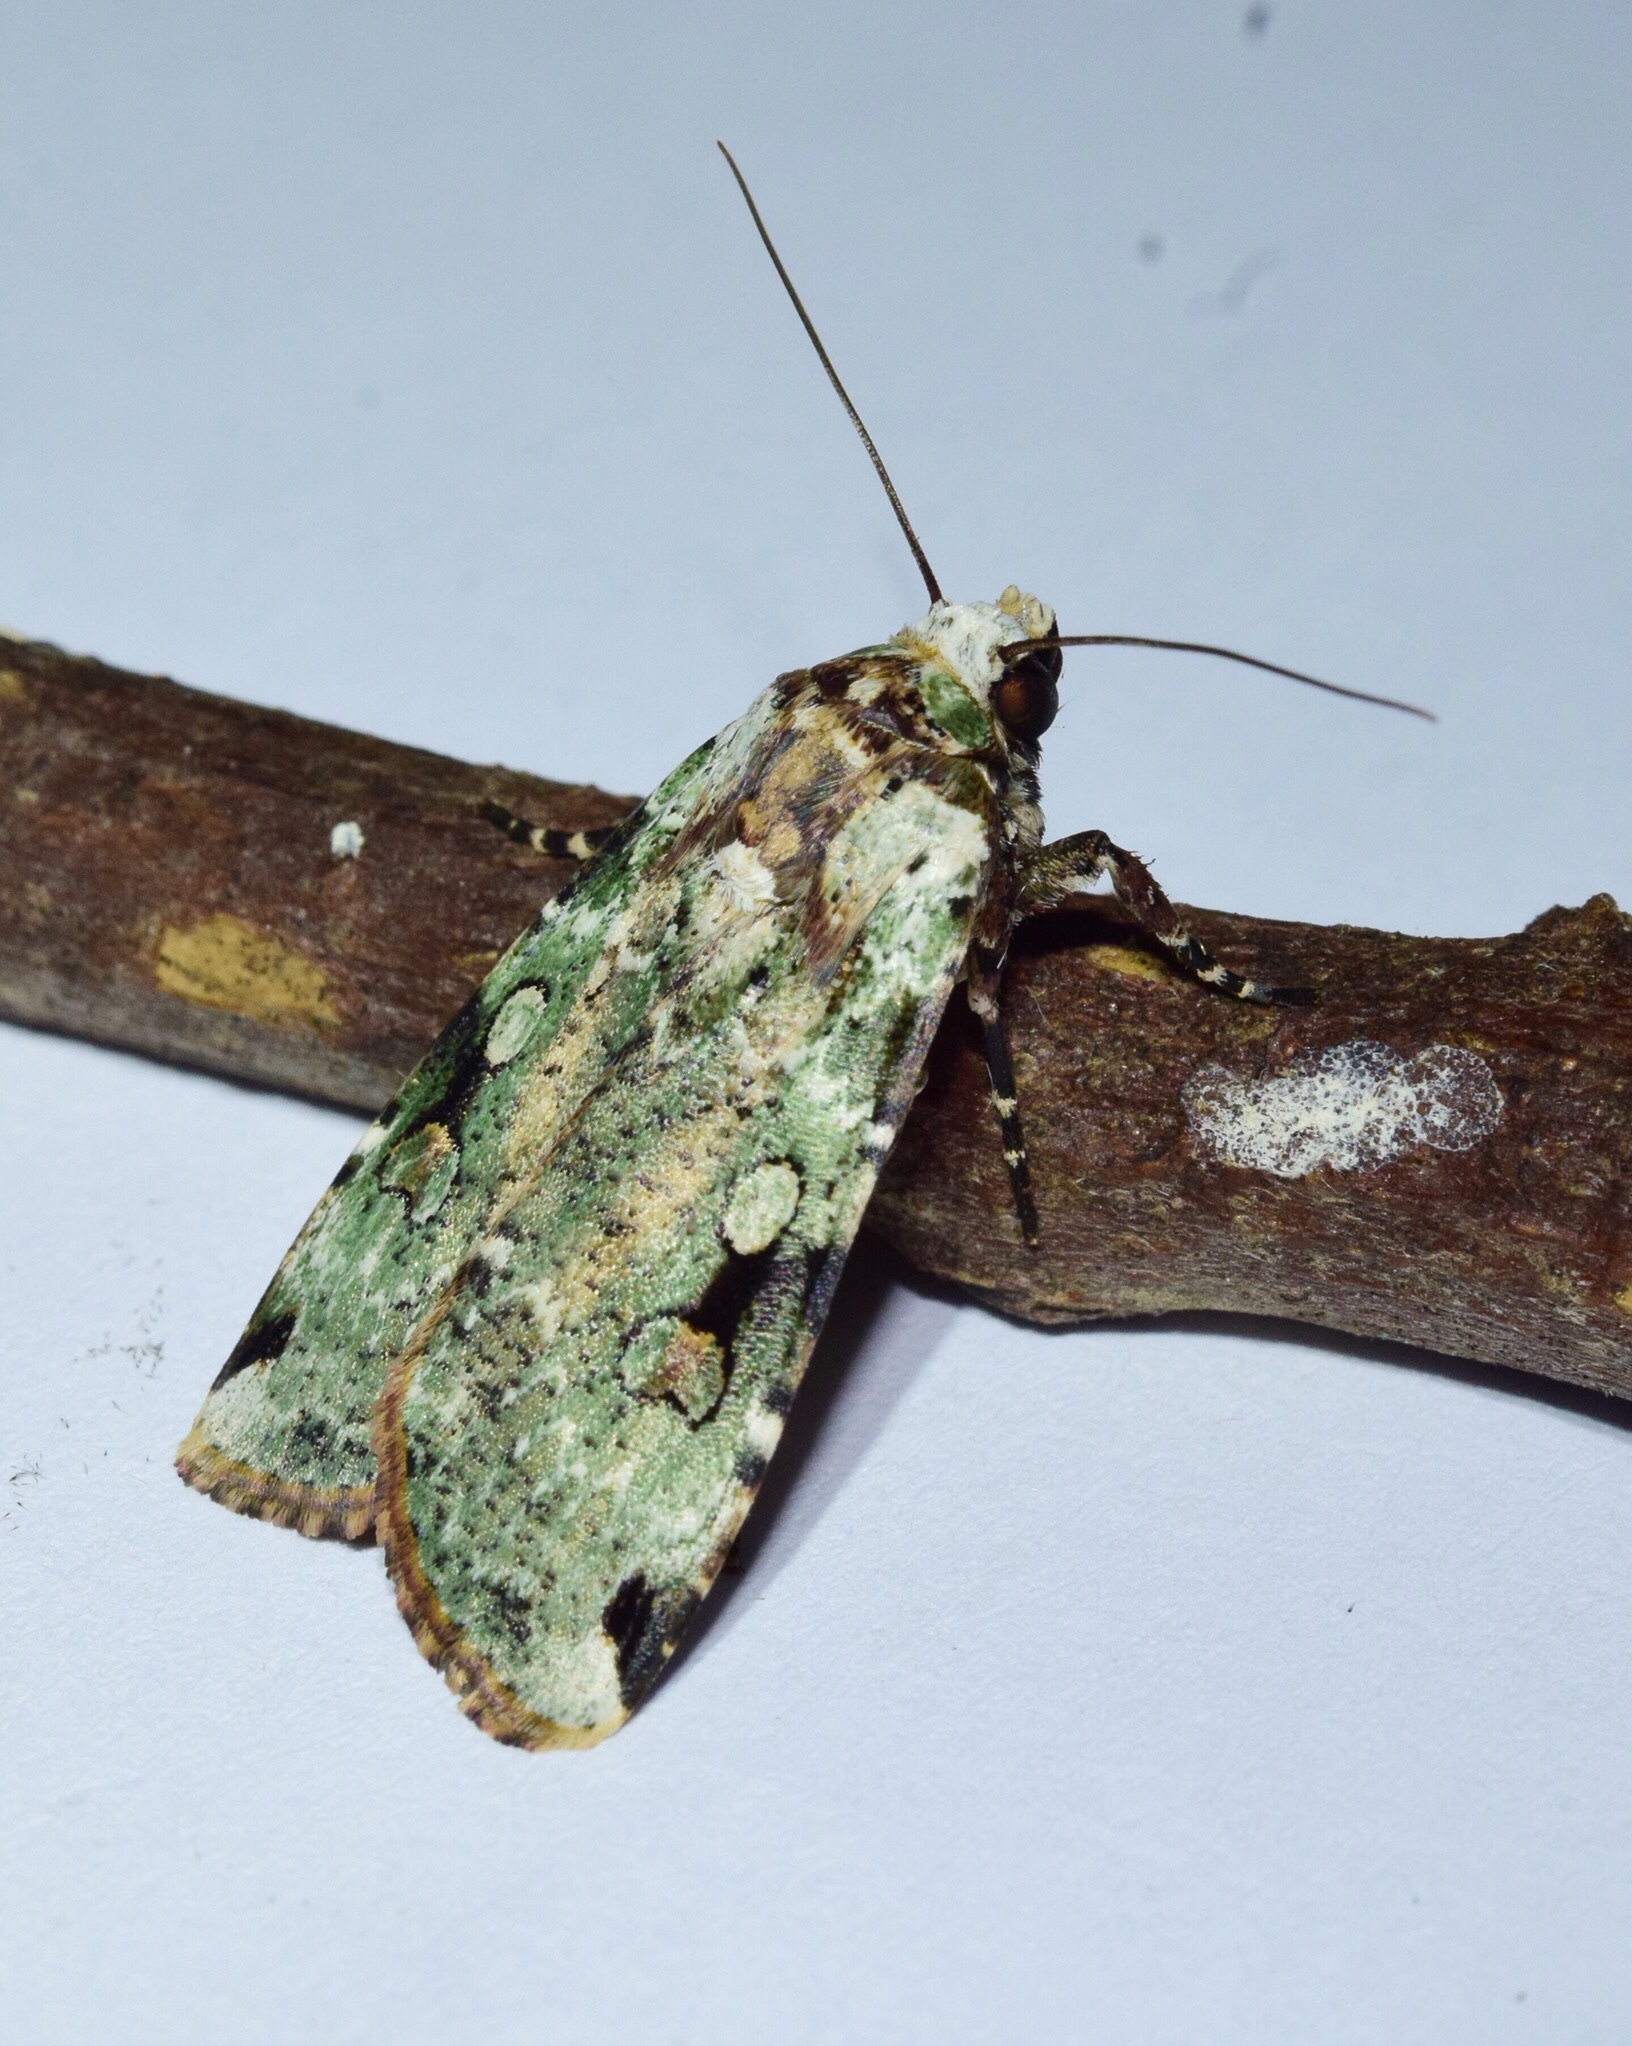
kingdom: Animalia
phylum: Arthropoda
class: Insecta
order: Lepidoptera
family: Noctuidae
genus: Mentaxya
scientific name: Mentaxya ignicollis
